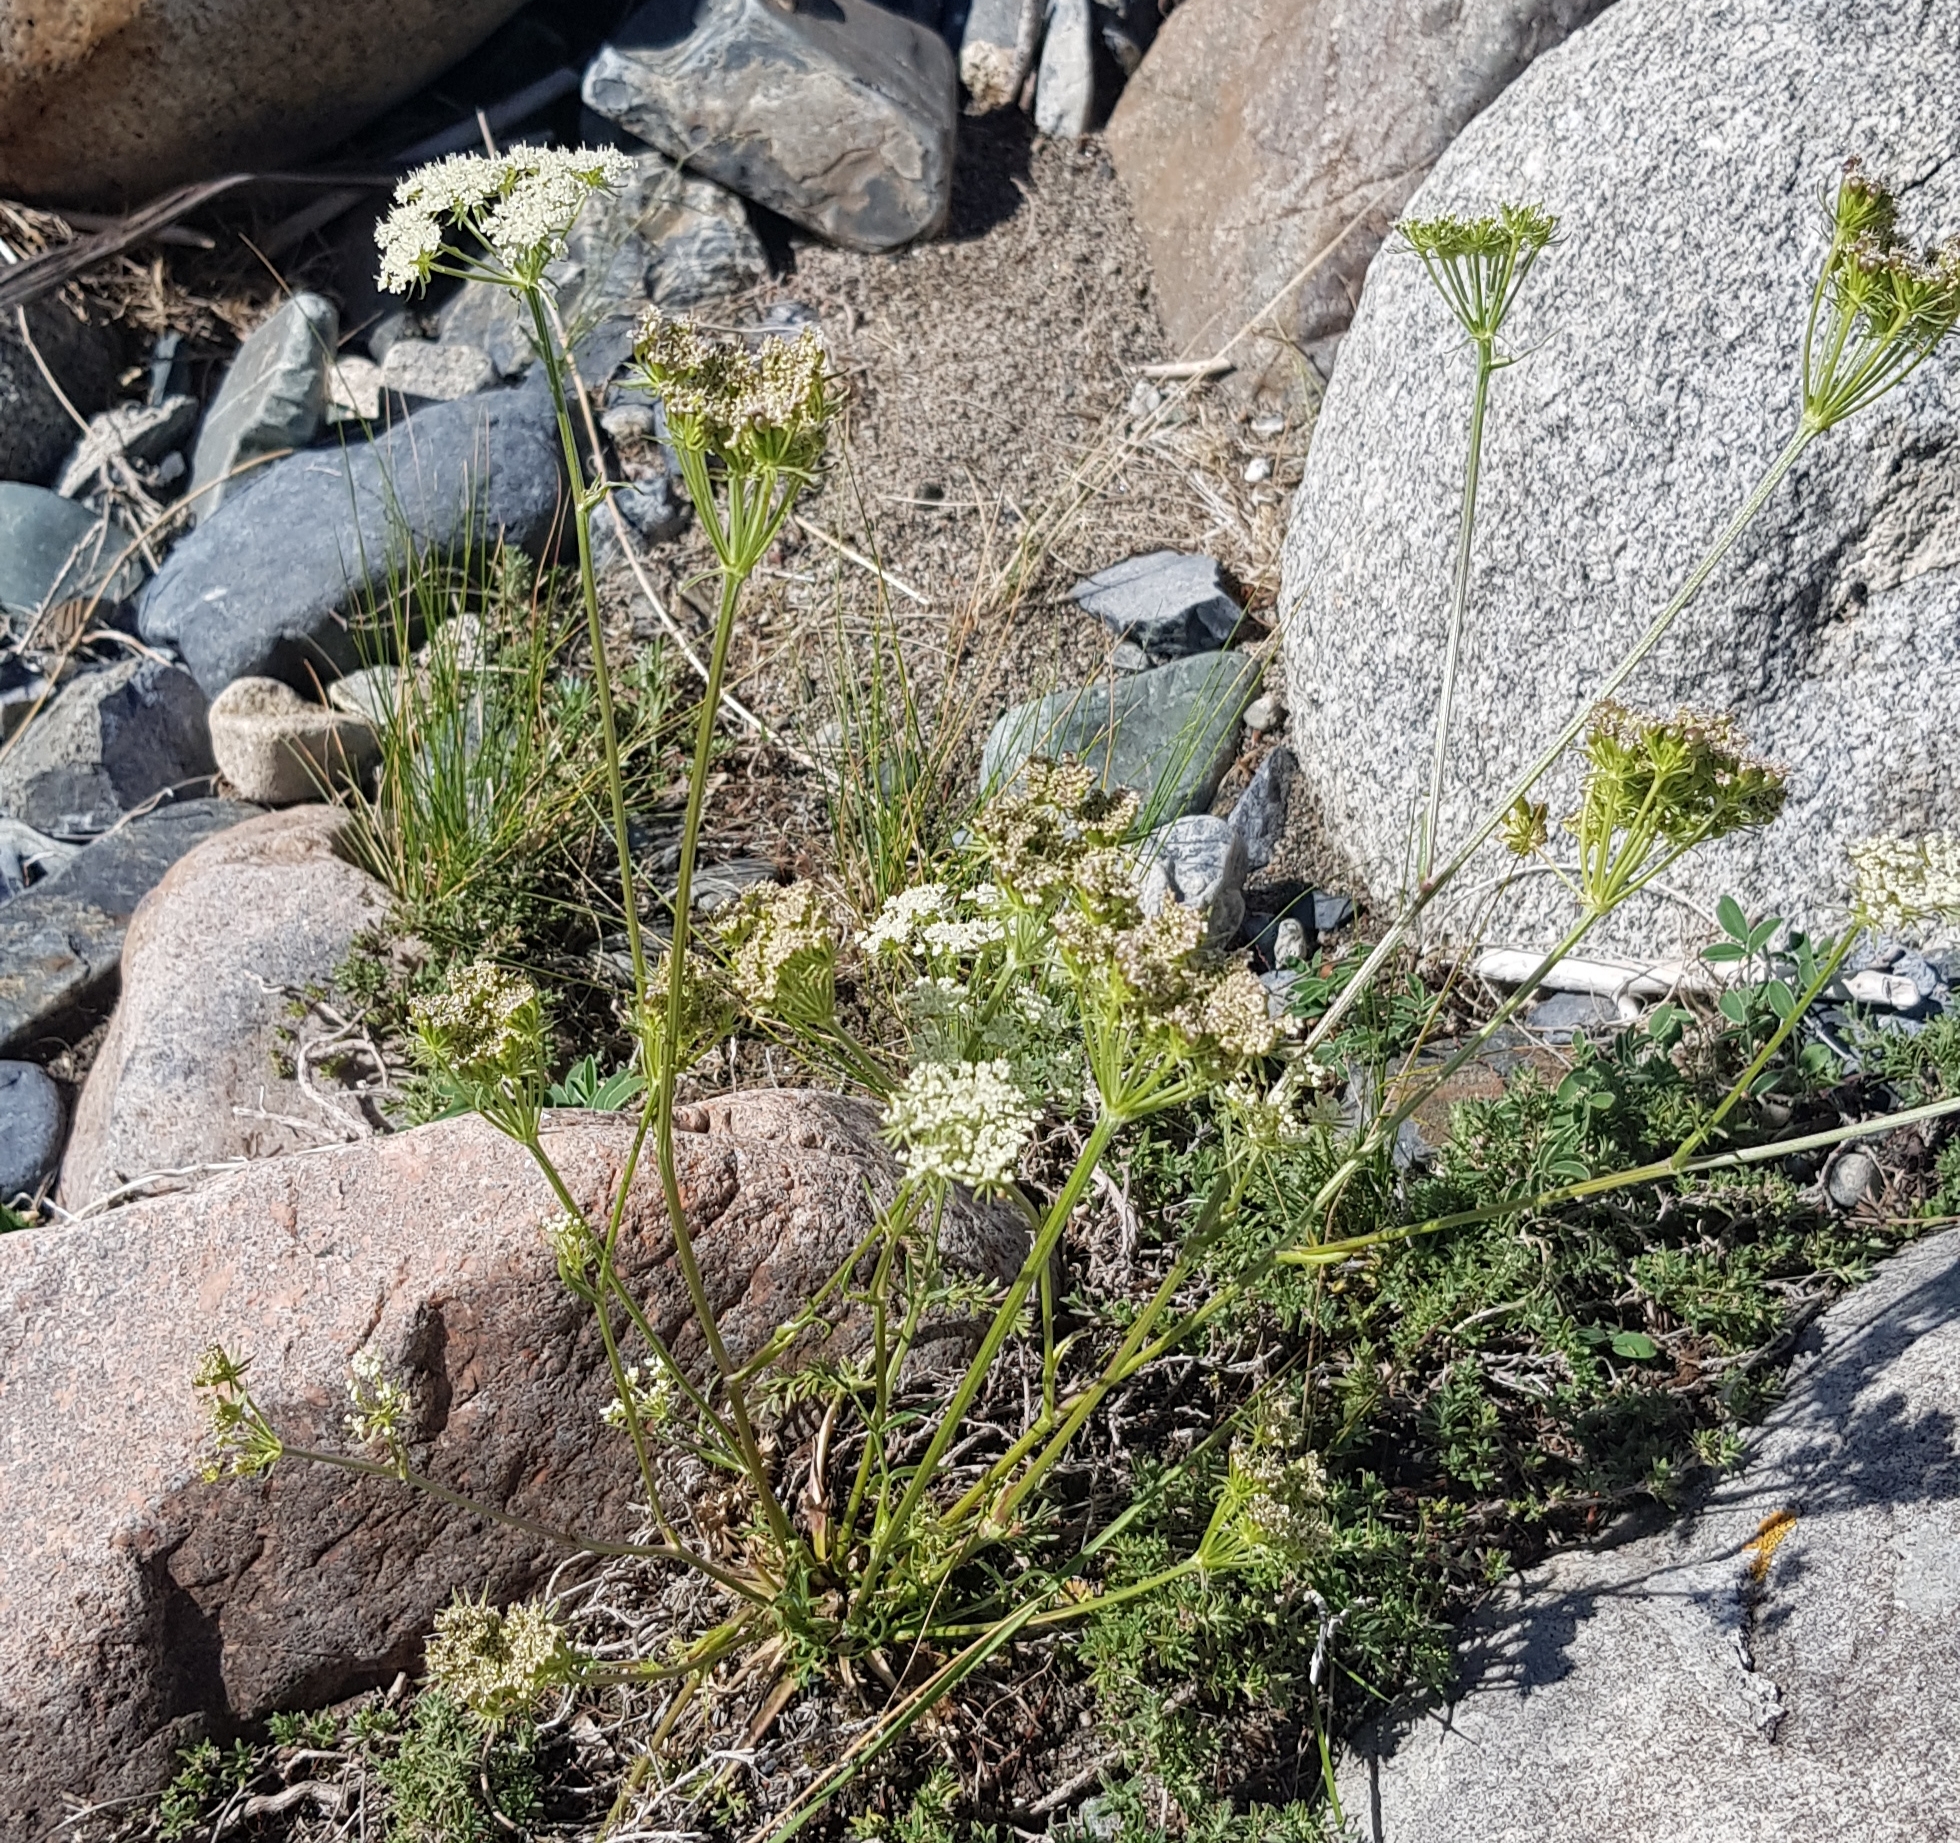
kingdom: Plantae
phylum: Tracheophyta
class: Magnoliopsida
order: Apiales
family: Apiaceae
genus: Kitagawia
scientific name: Kitagawia baicalensis
